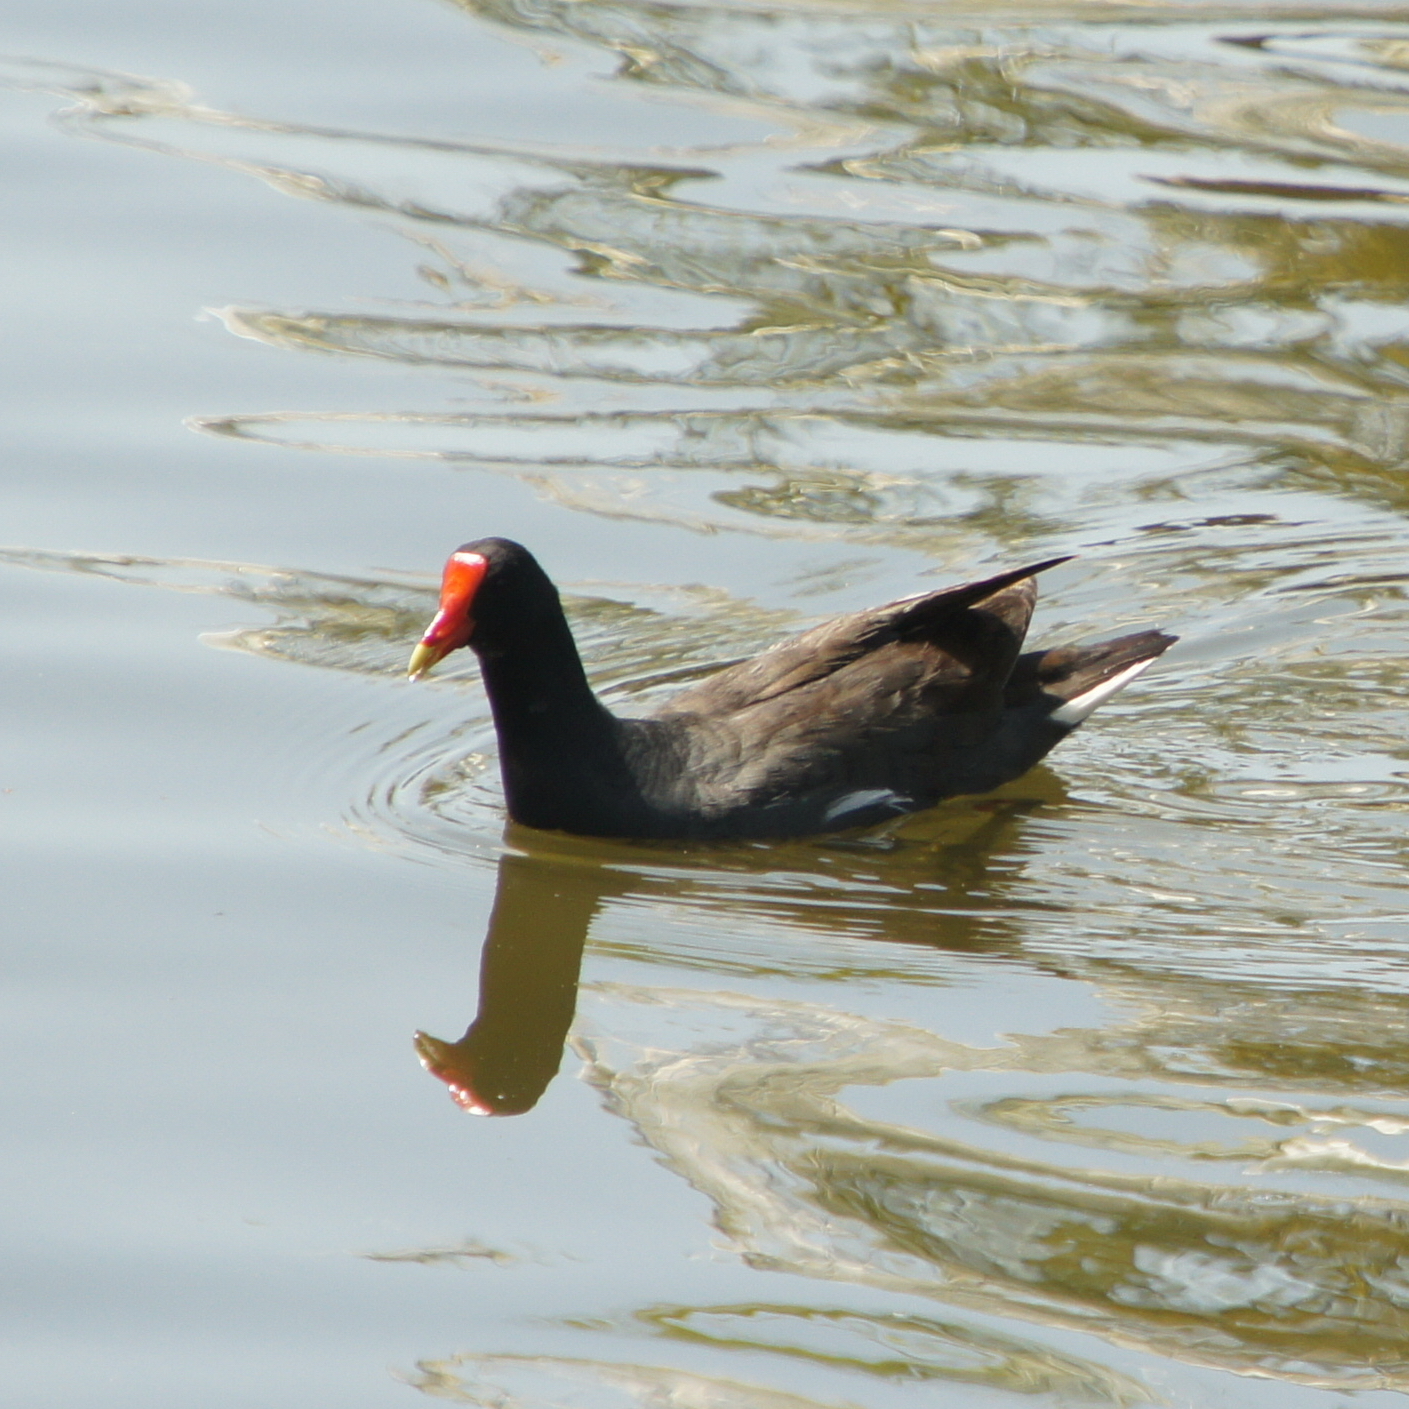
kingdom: Animalia
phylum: Chordata
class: Aves
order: Gruiformes
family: Rallidae
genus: Gallinula
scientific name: Gallinula chloropus
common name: Common moorhen
